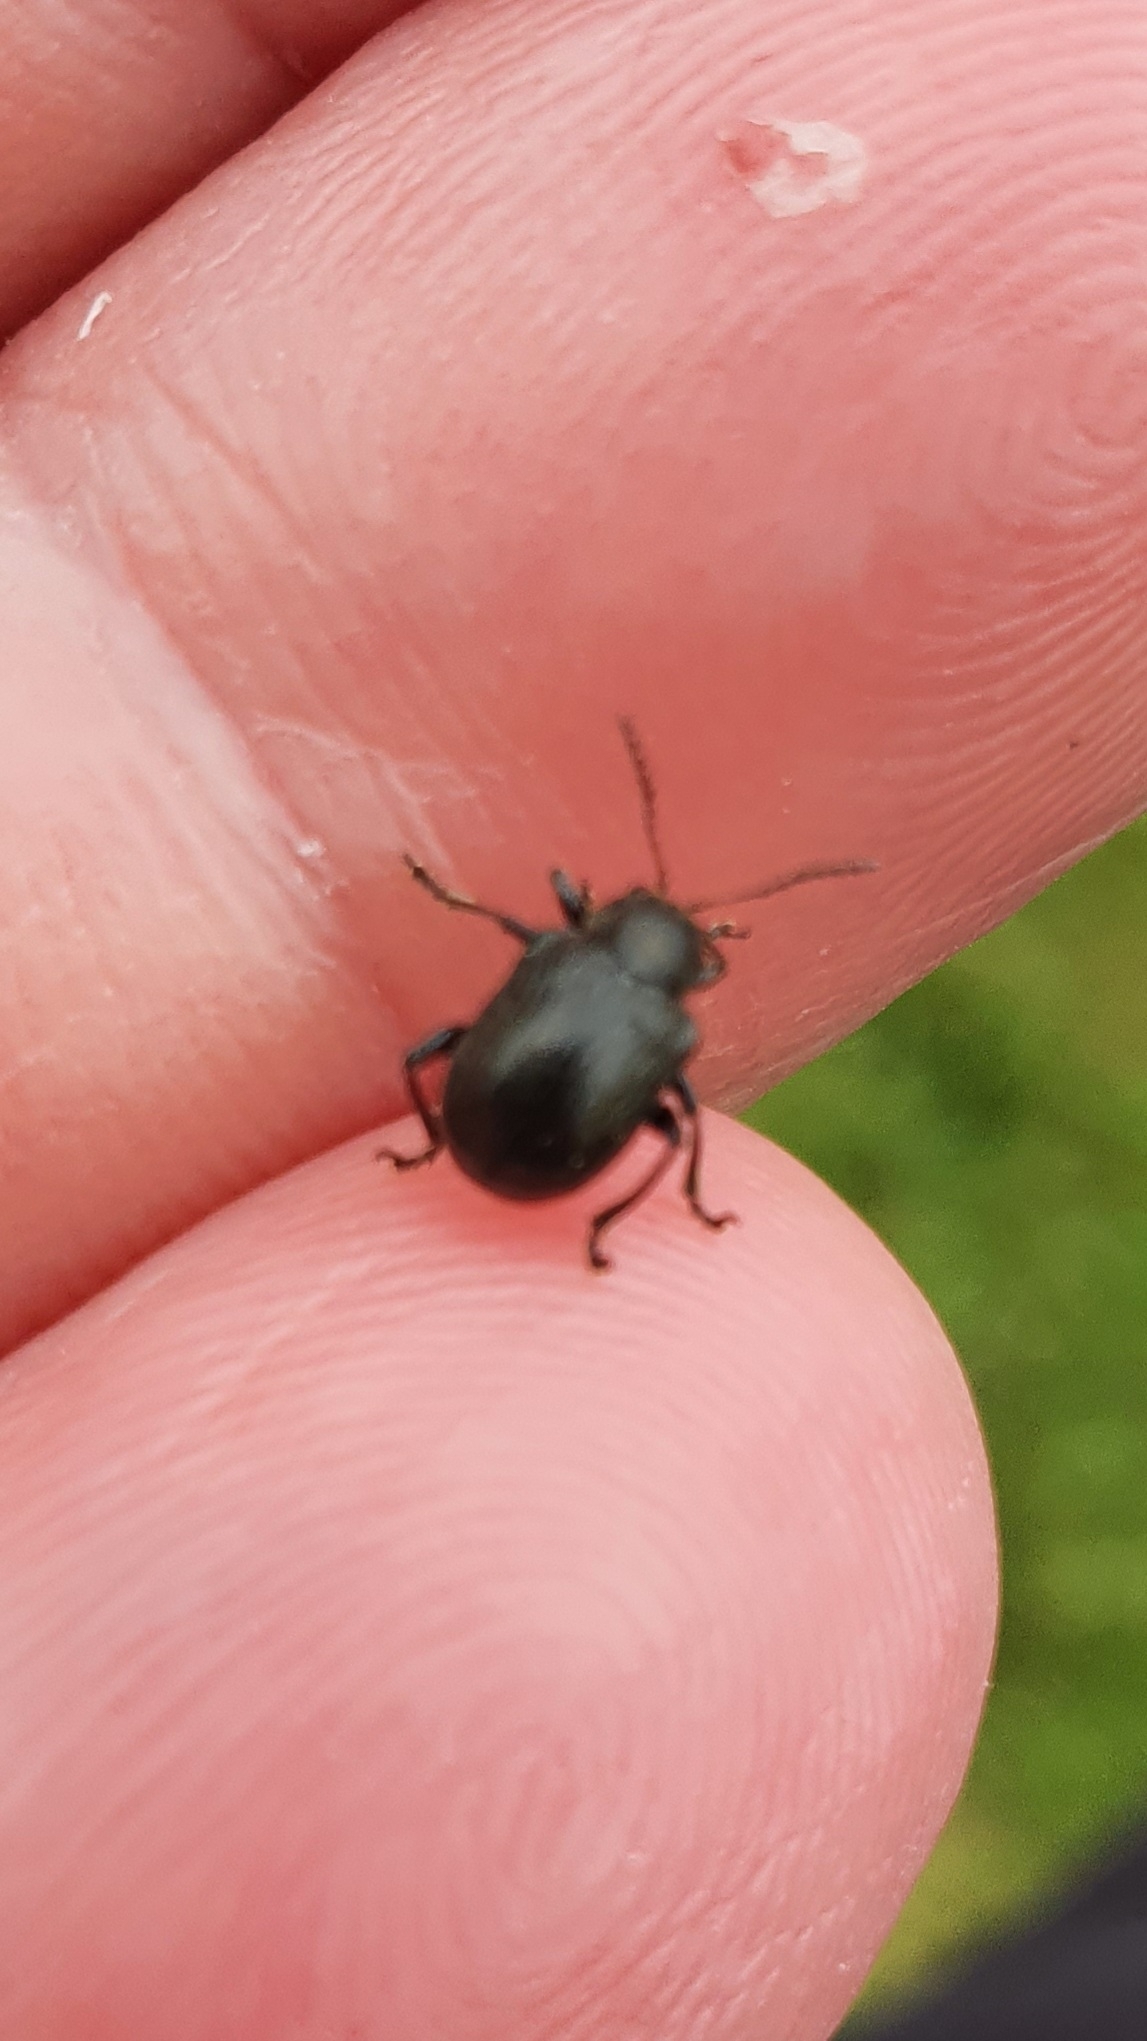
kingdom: Animalia
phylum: Arthropoda
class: Insecta
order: Coleoptera
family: Chrysomelidae
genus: Bromius
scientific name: Bromius obscurus
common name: Western grape rootworm
